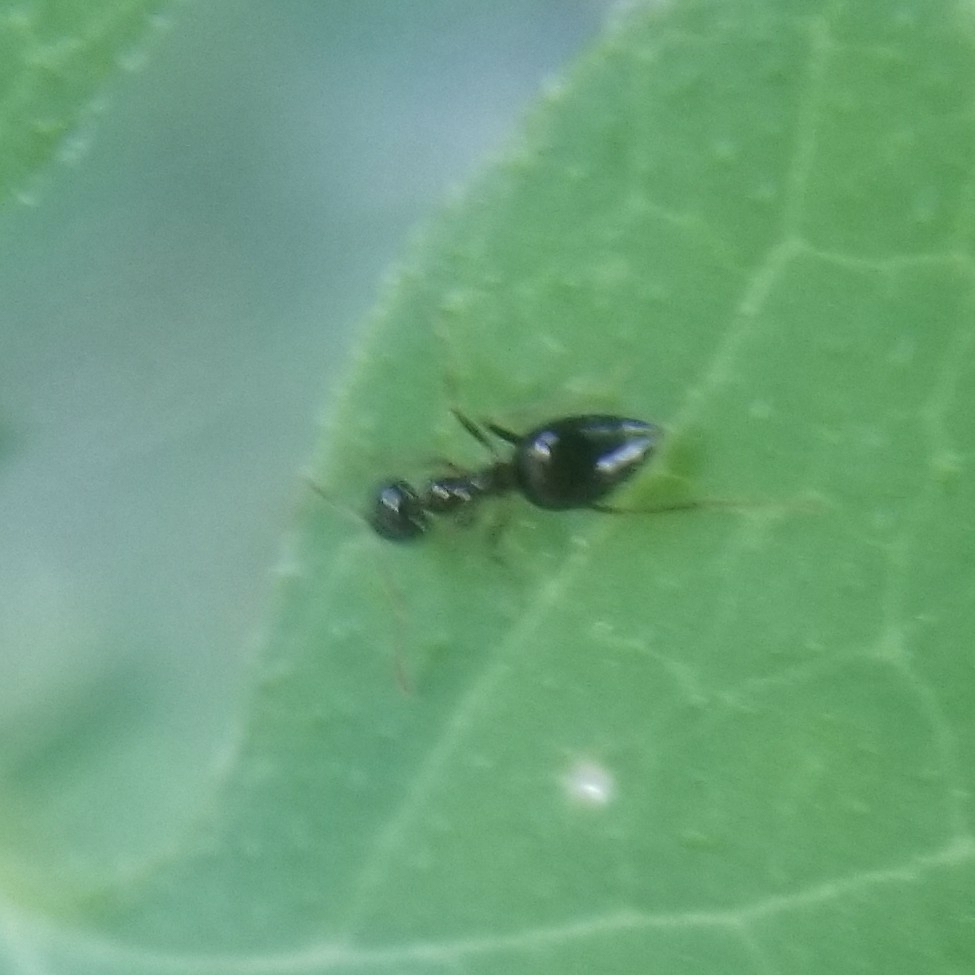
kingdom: Animalia
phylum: Arthropoda
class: Insecta
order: Hymenoptera
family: Formicidae
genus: Prenolepis
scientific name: Prenolepis imparis
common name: Small honey ant
